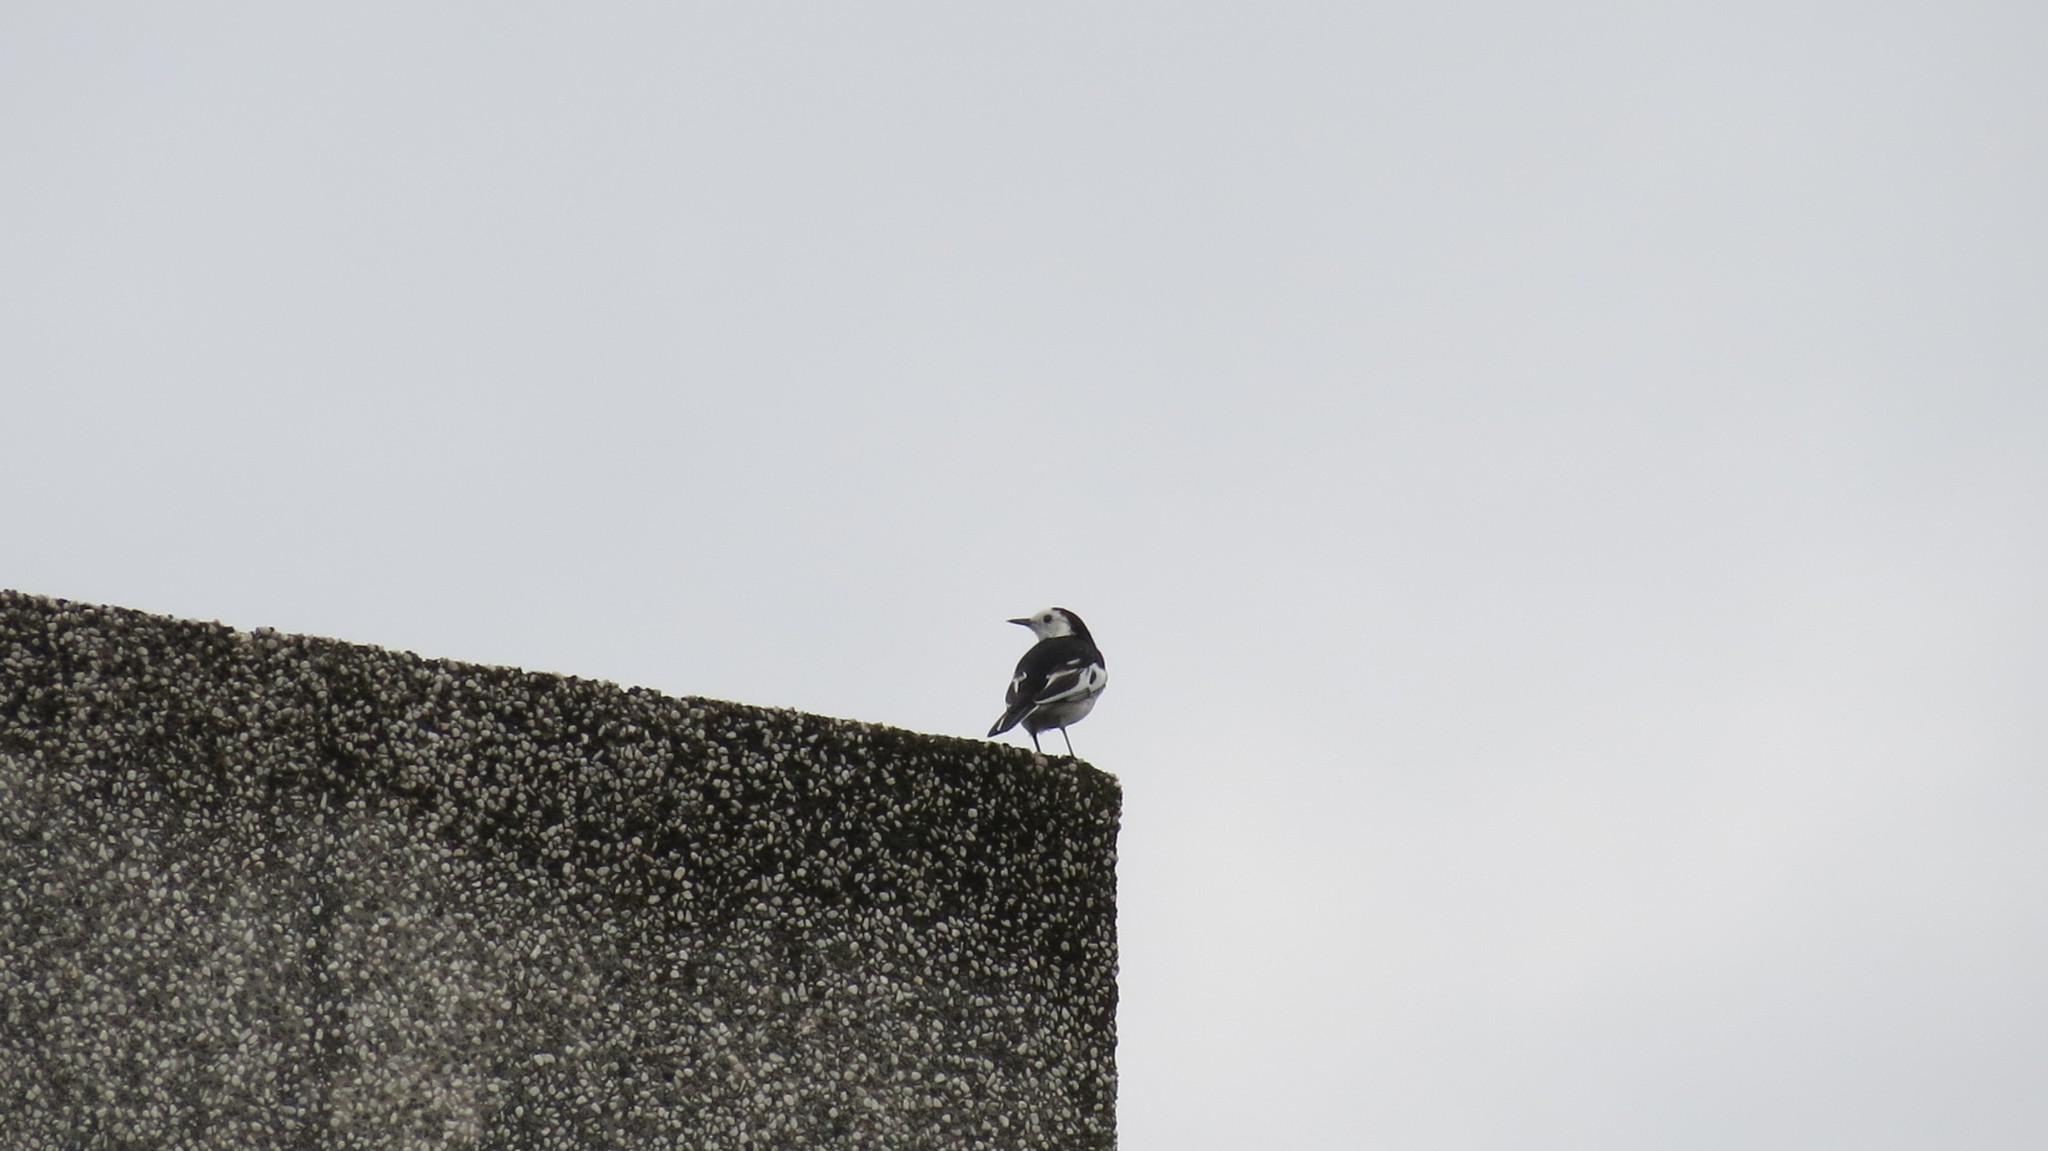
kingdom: Animalia
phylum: Chordata
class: Aves
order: Passeriformes
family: Motacillidae
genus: Motacilla
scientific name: Motacilla alba
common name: White wagtail
